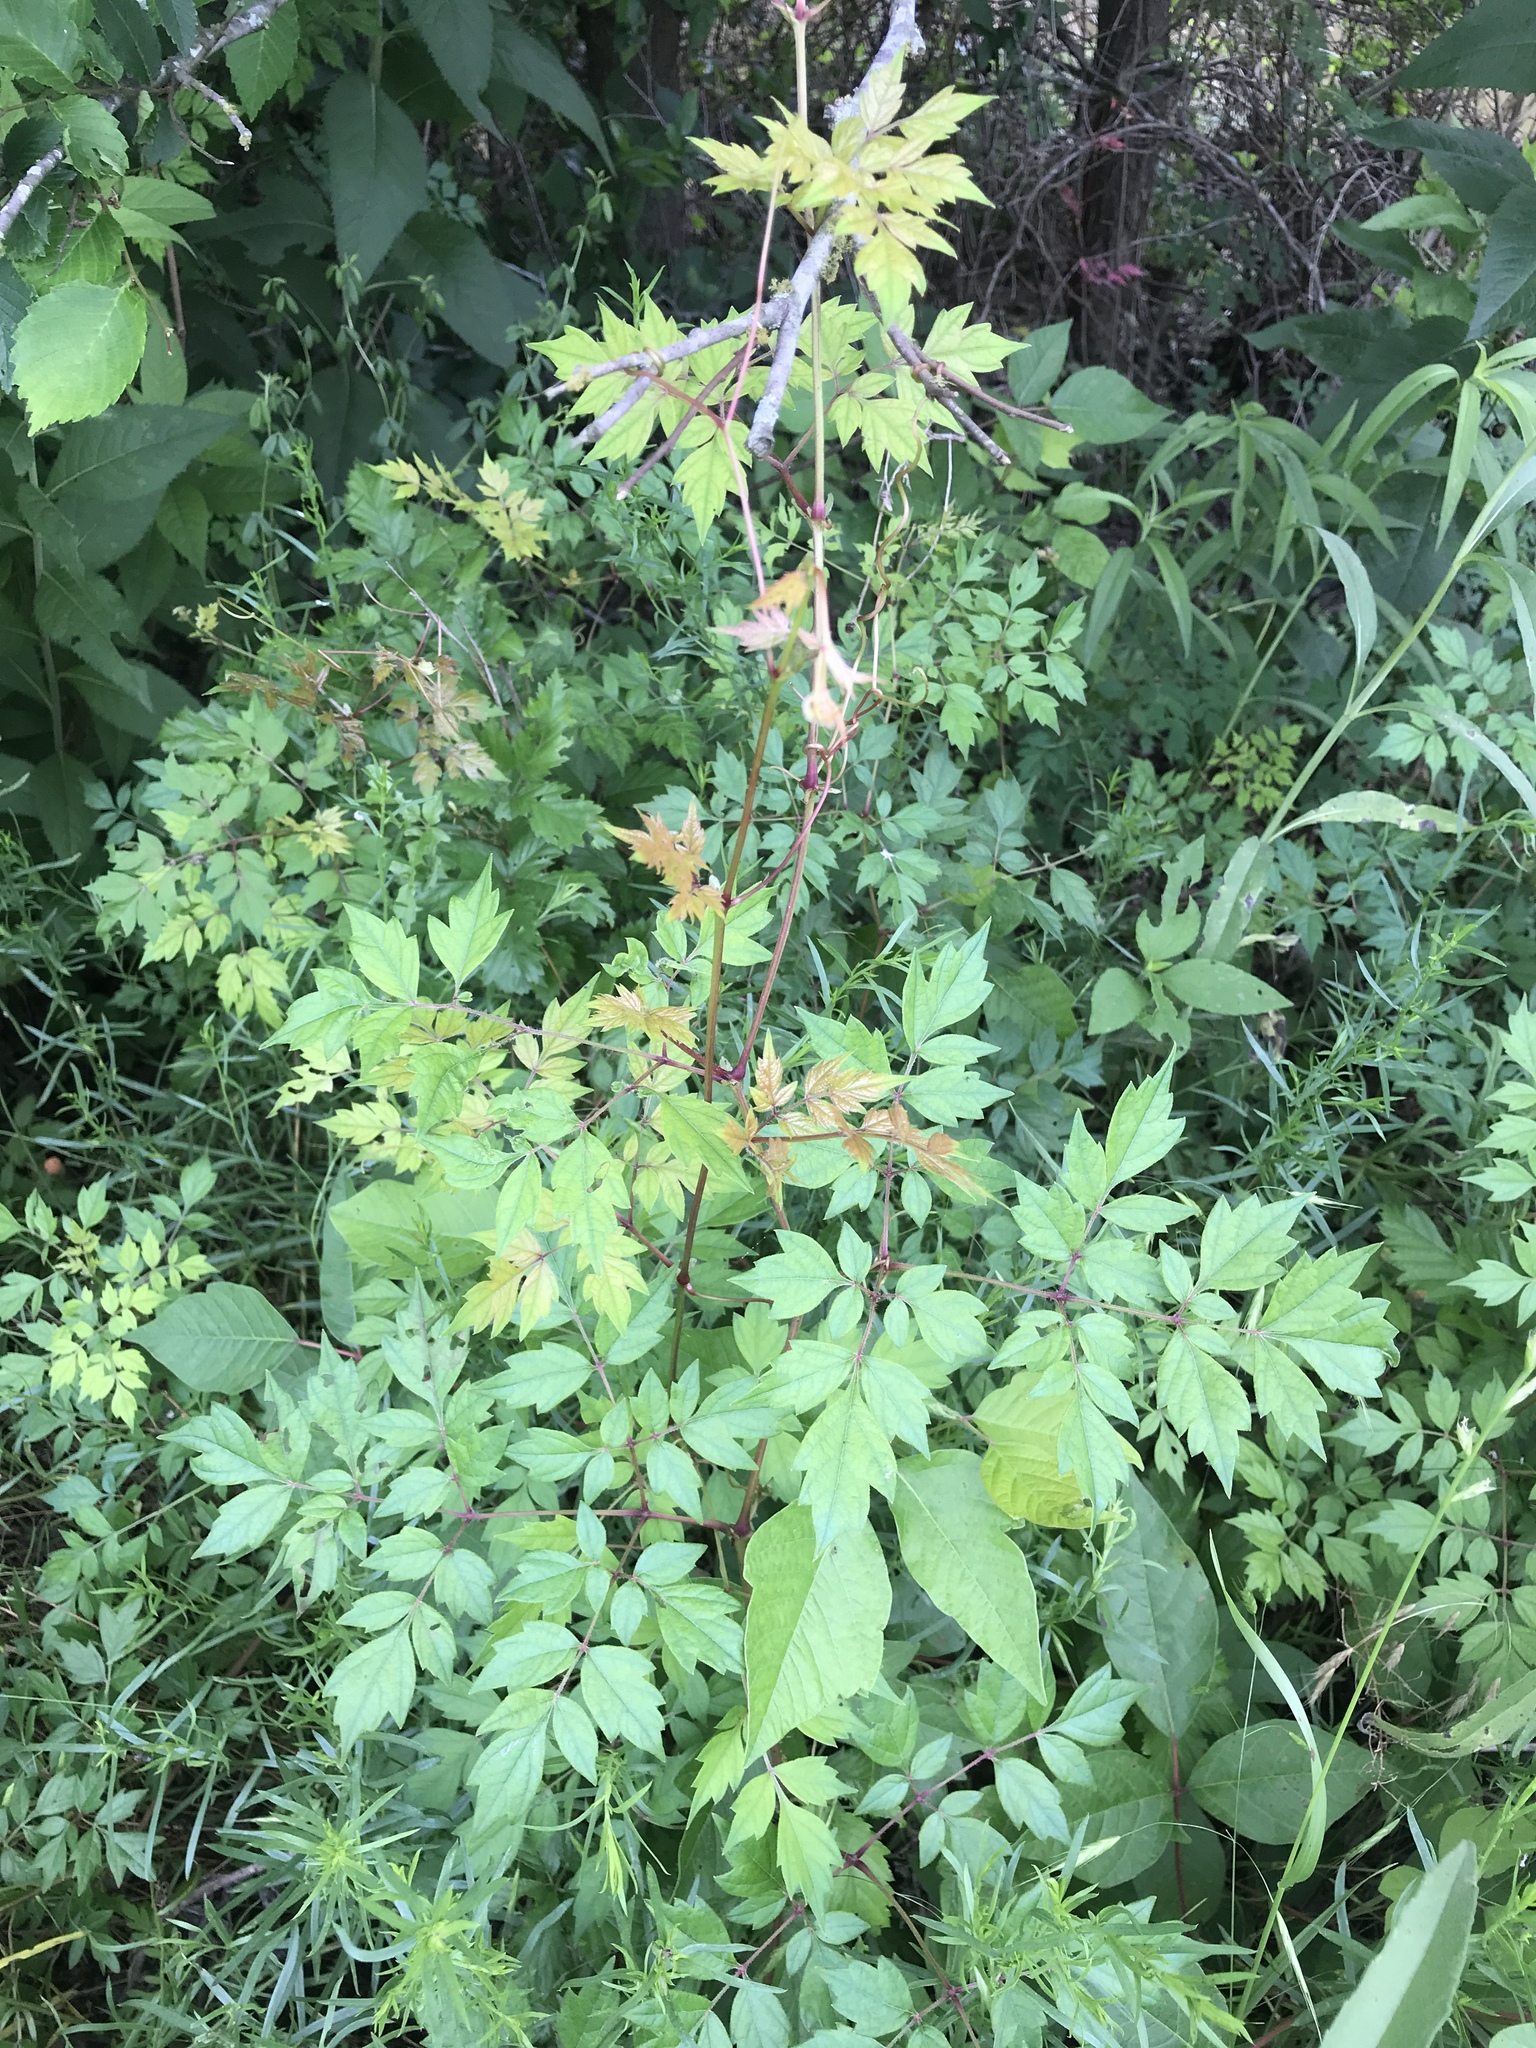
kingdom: Plantae
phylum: Tracheophyta
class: Magnoliopsida
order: Vitales
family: Vitaceae
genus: Nekemias
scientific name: Nekemias arborea
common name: Peppervine
